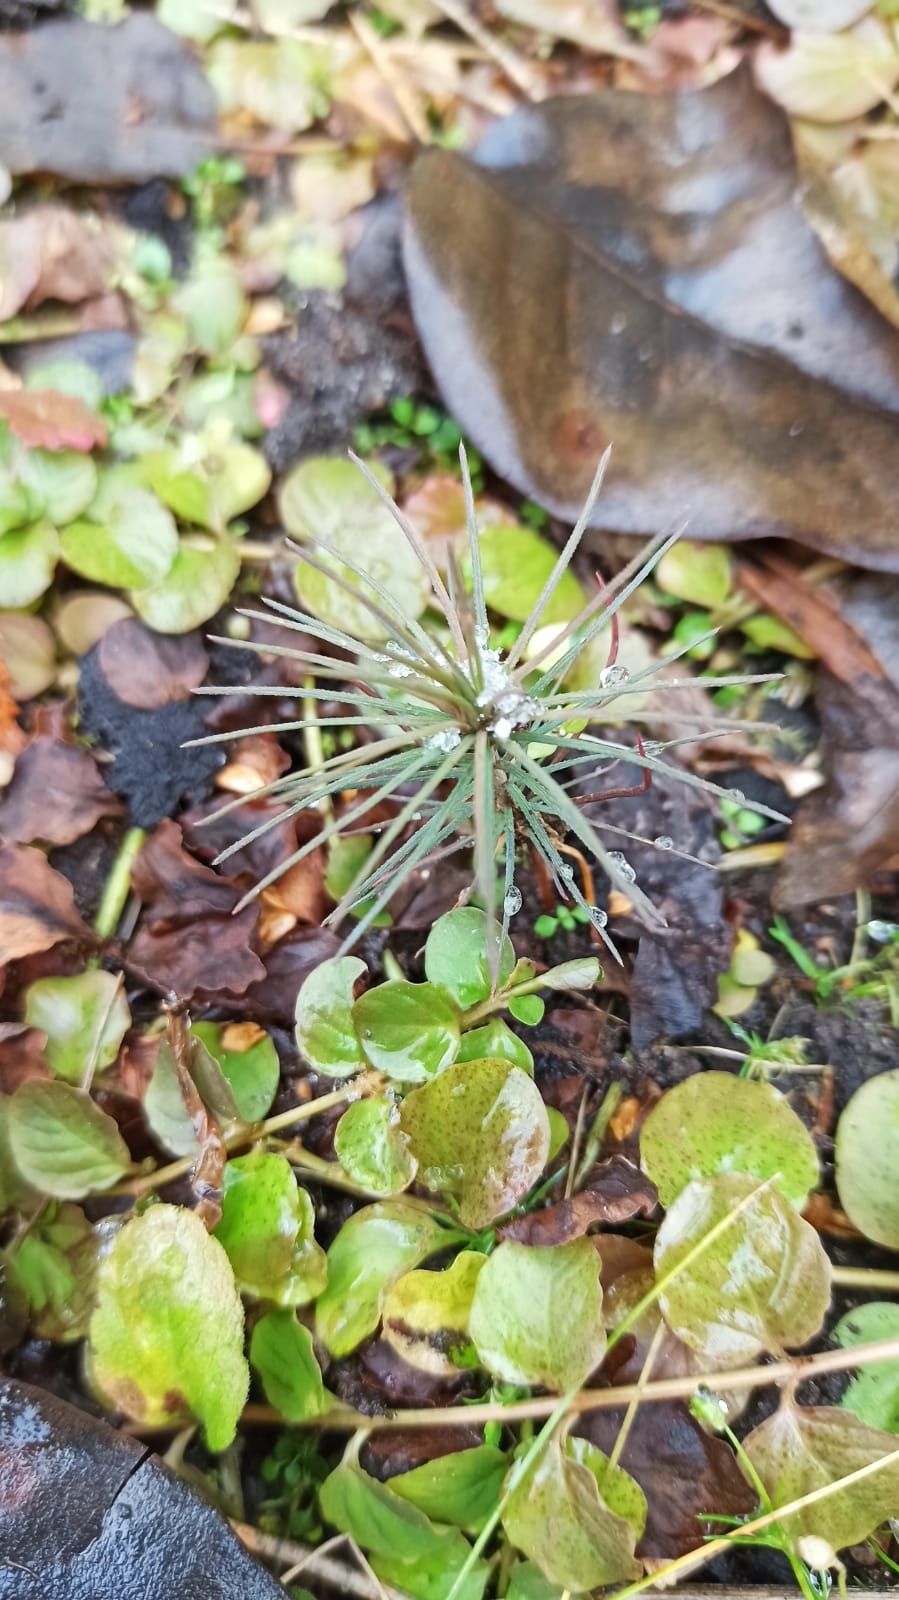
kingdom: Plantae
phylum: Tracheophyta
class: Pinopsida
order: Pinales
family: Pinaceae
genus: Pinus
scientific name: Pinus sylvestris
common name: Scots pine
